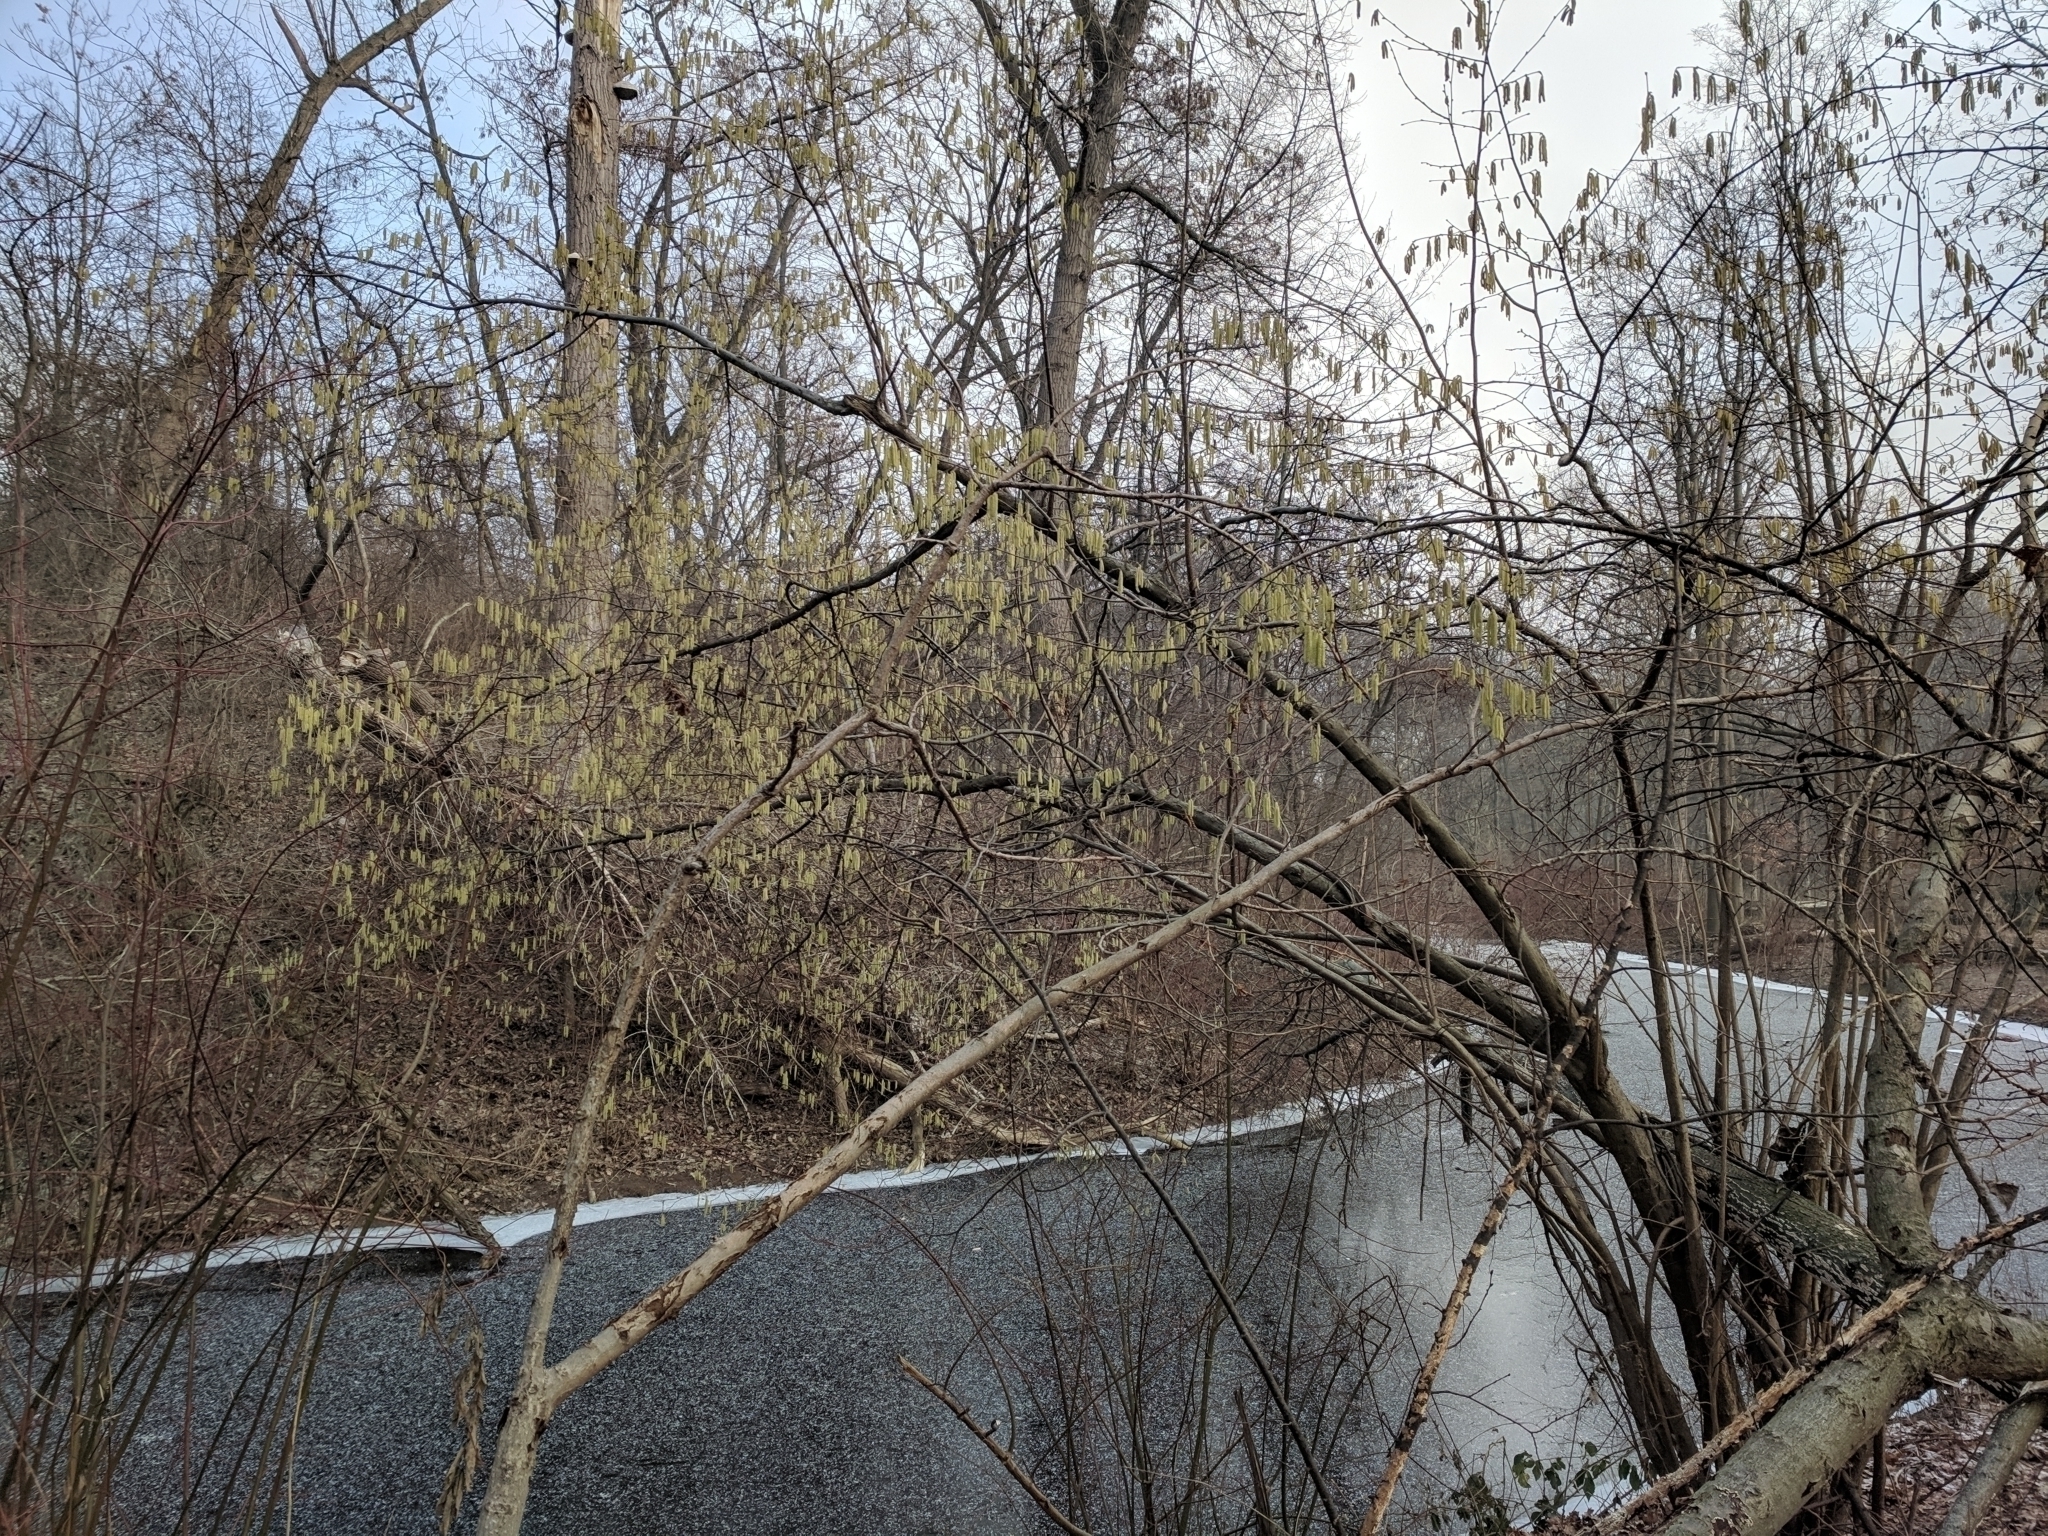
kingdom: Plantae
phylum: Tracheophyta
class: Magnoliopsida
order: Fagales
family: Betulaceae
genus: Corylus
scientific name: Corylus avellana
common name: European hazel
